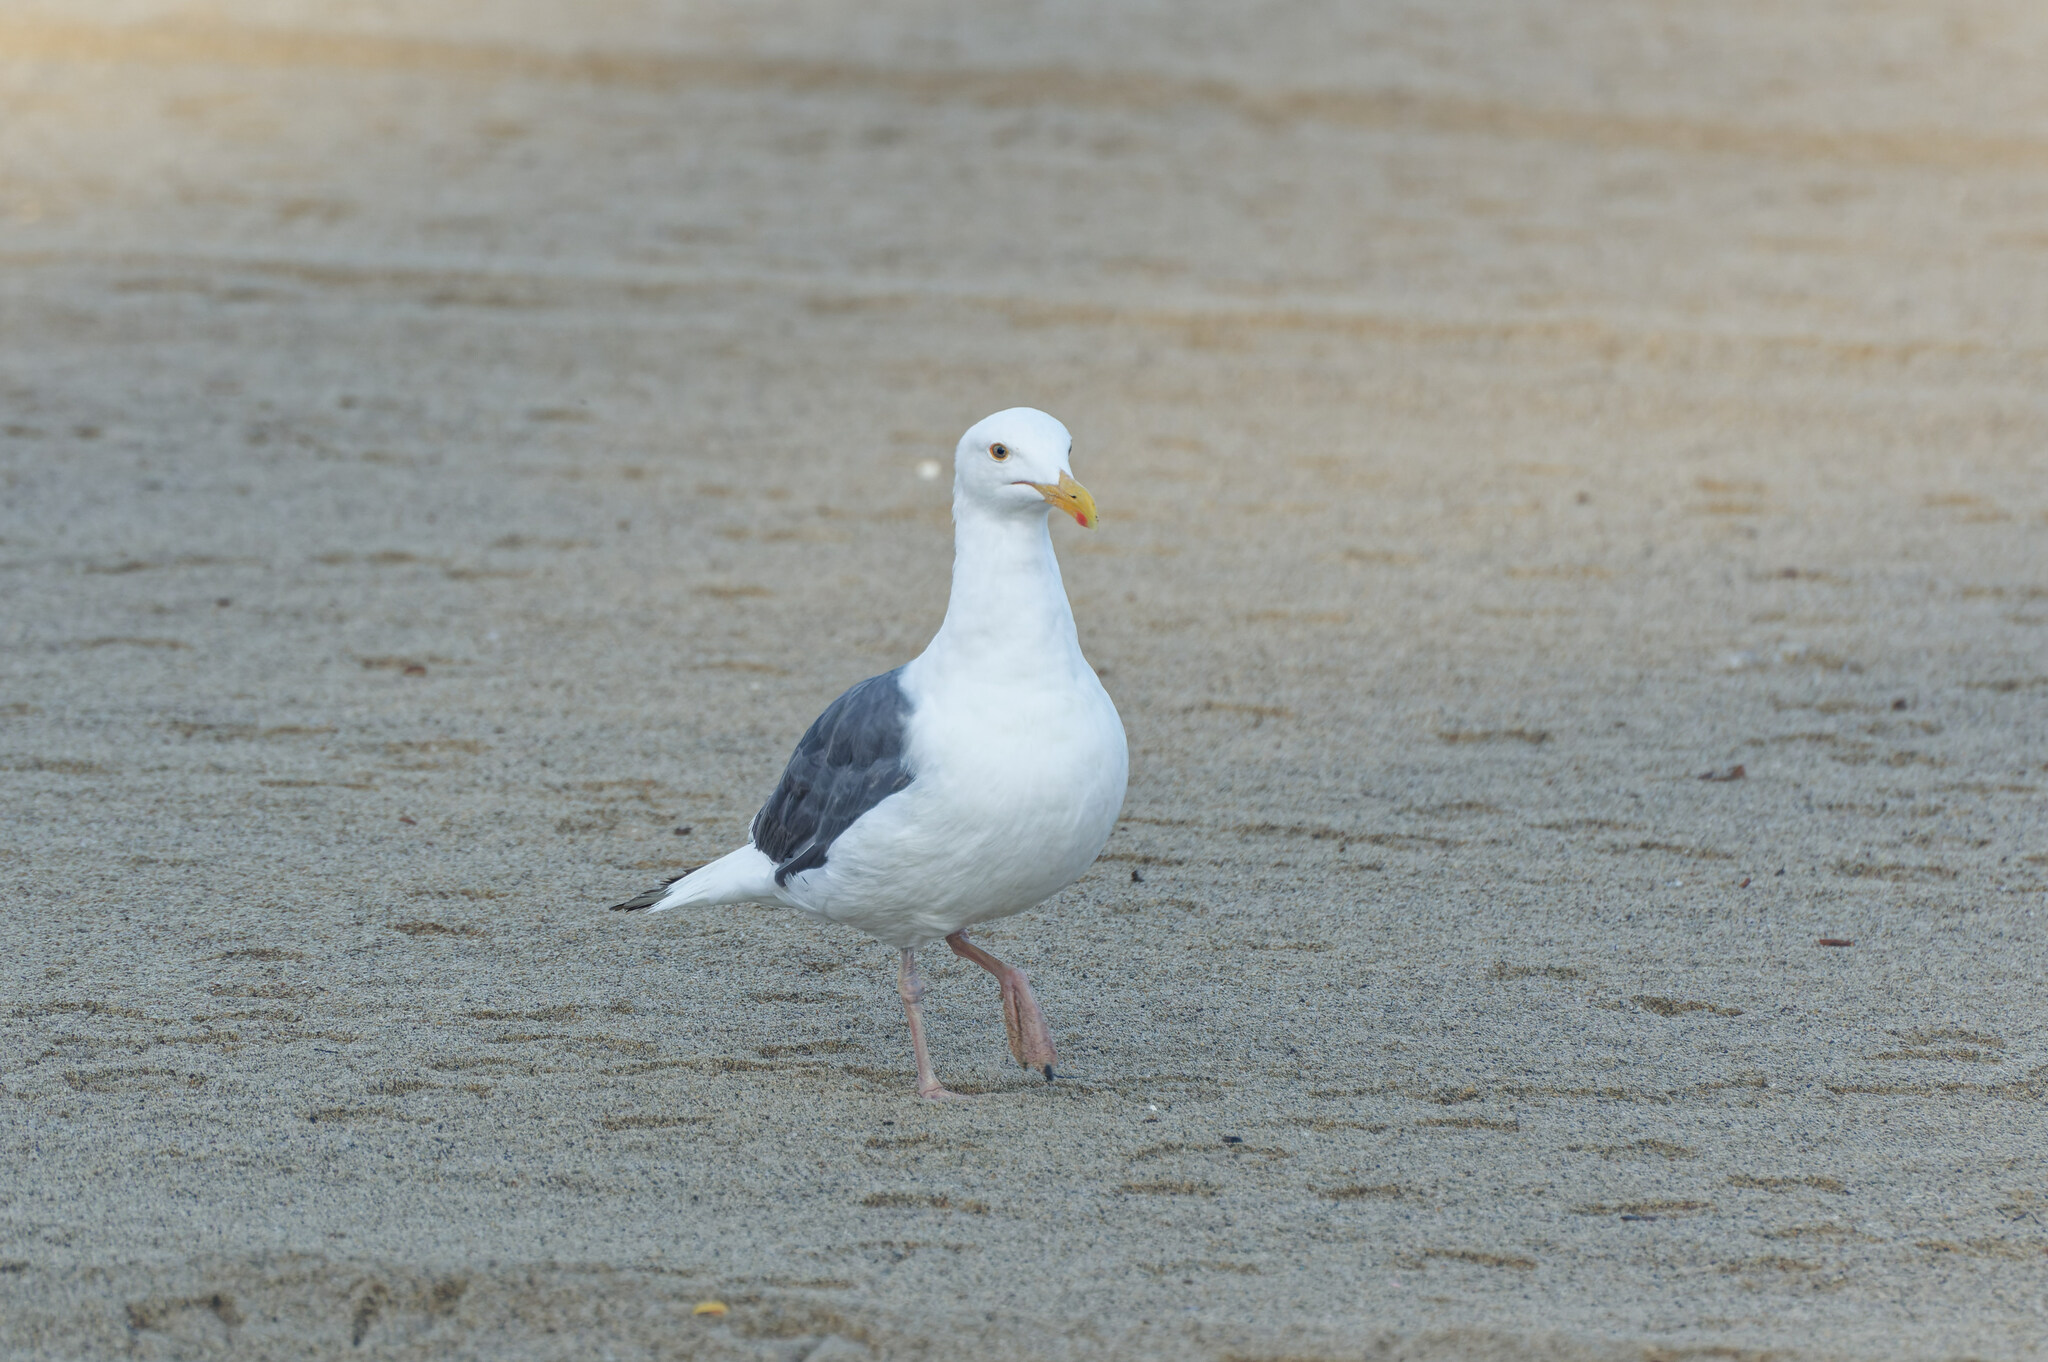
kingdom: Animalia
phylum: Chordata
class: Aves
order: Charadriiformes
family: Laridae
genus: Larus
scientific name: Larus occidentalis
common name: Western gull
